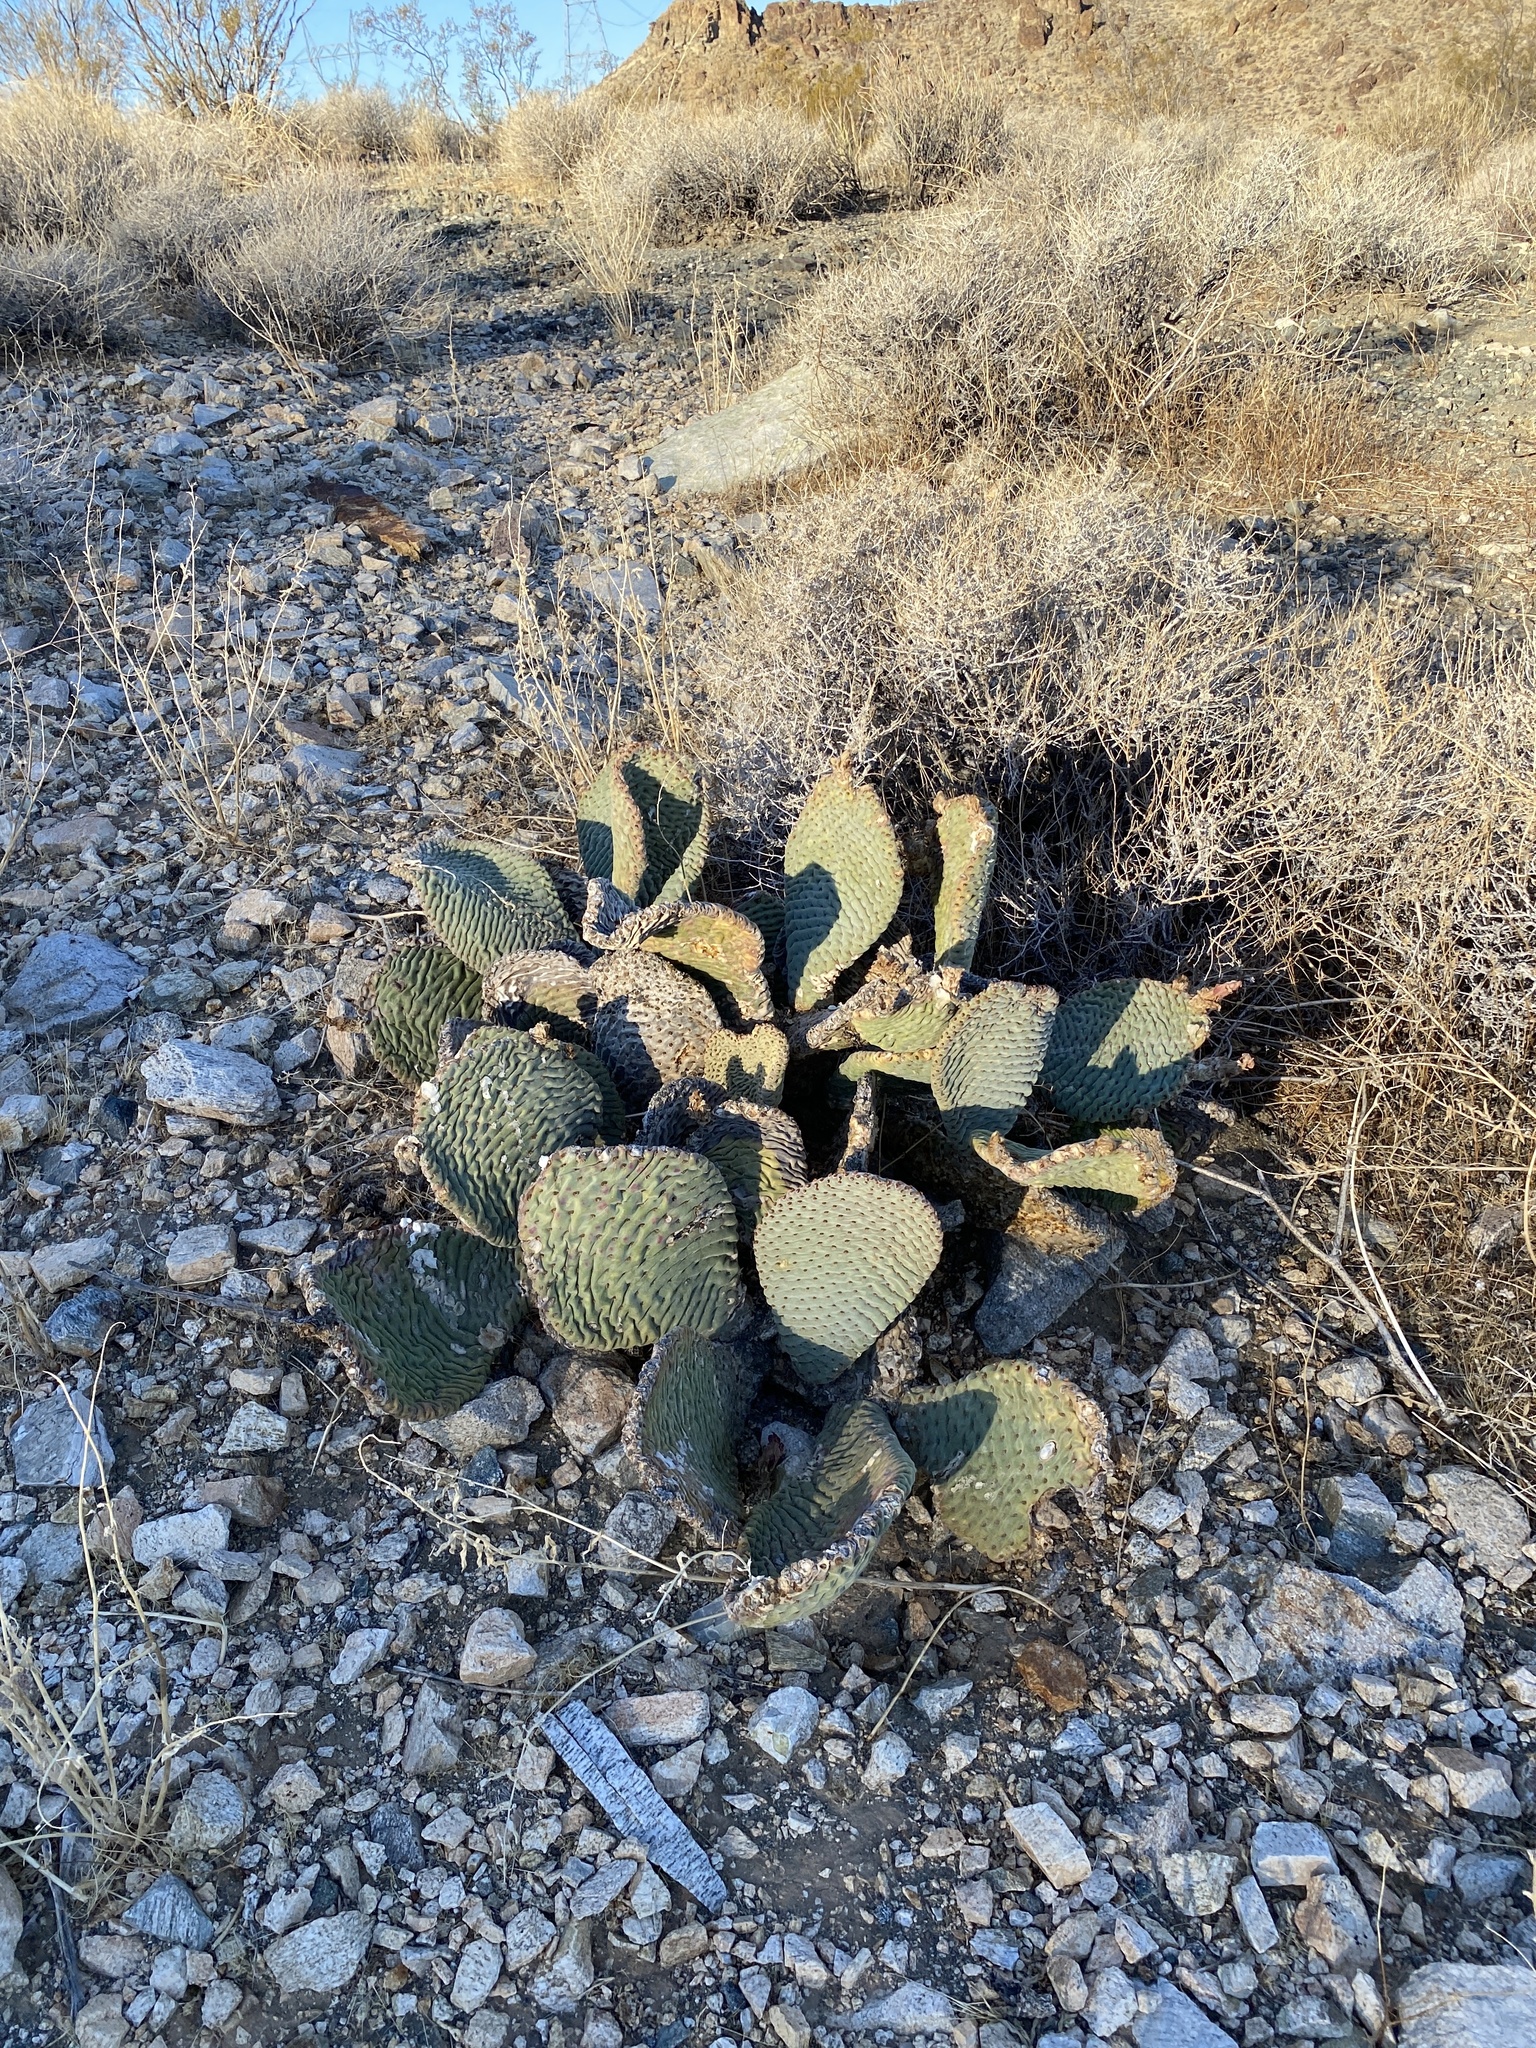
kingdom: Plantae
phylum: Tracheophyta
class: Magnoliopsida
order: Caryophyllales
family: Cactaceae
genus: Opuntia
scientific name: Opuntia basilaris
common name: Beavertail prickly-pear
